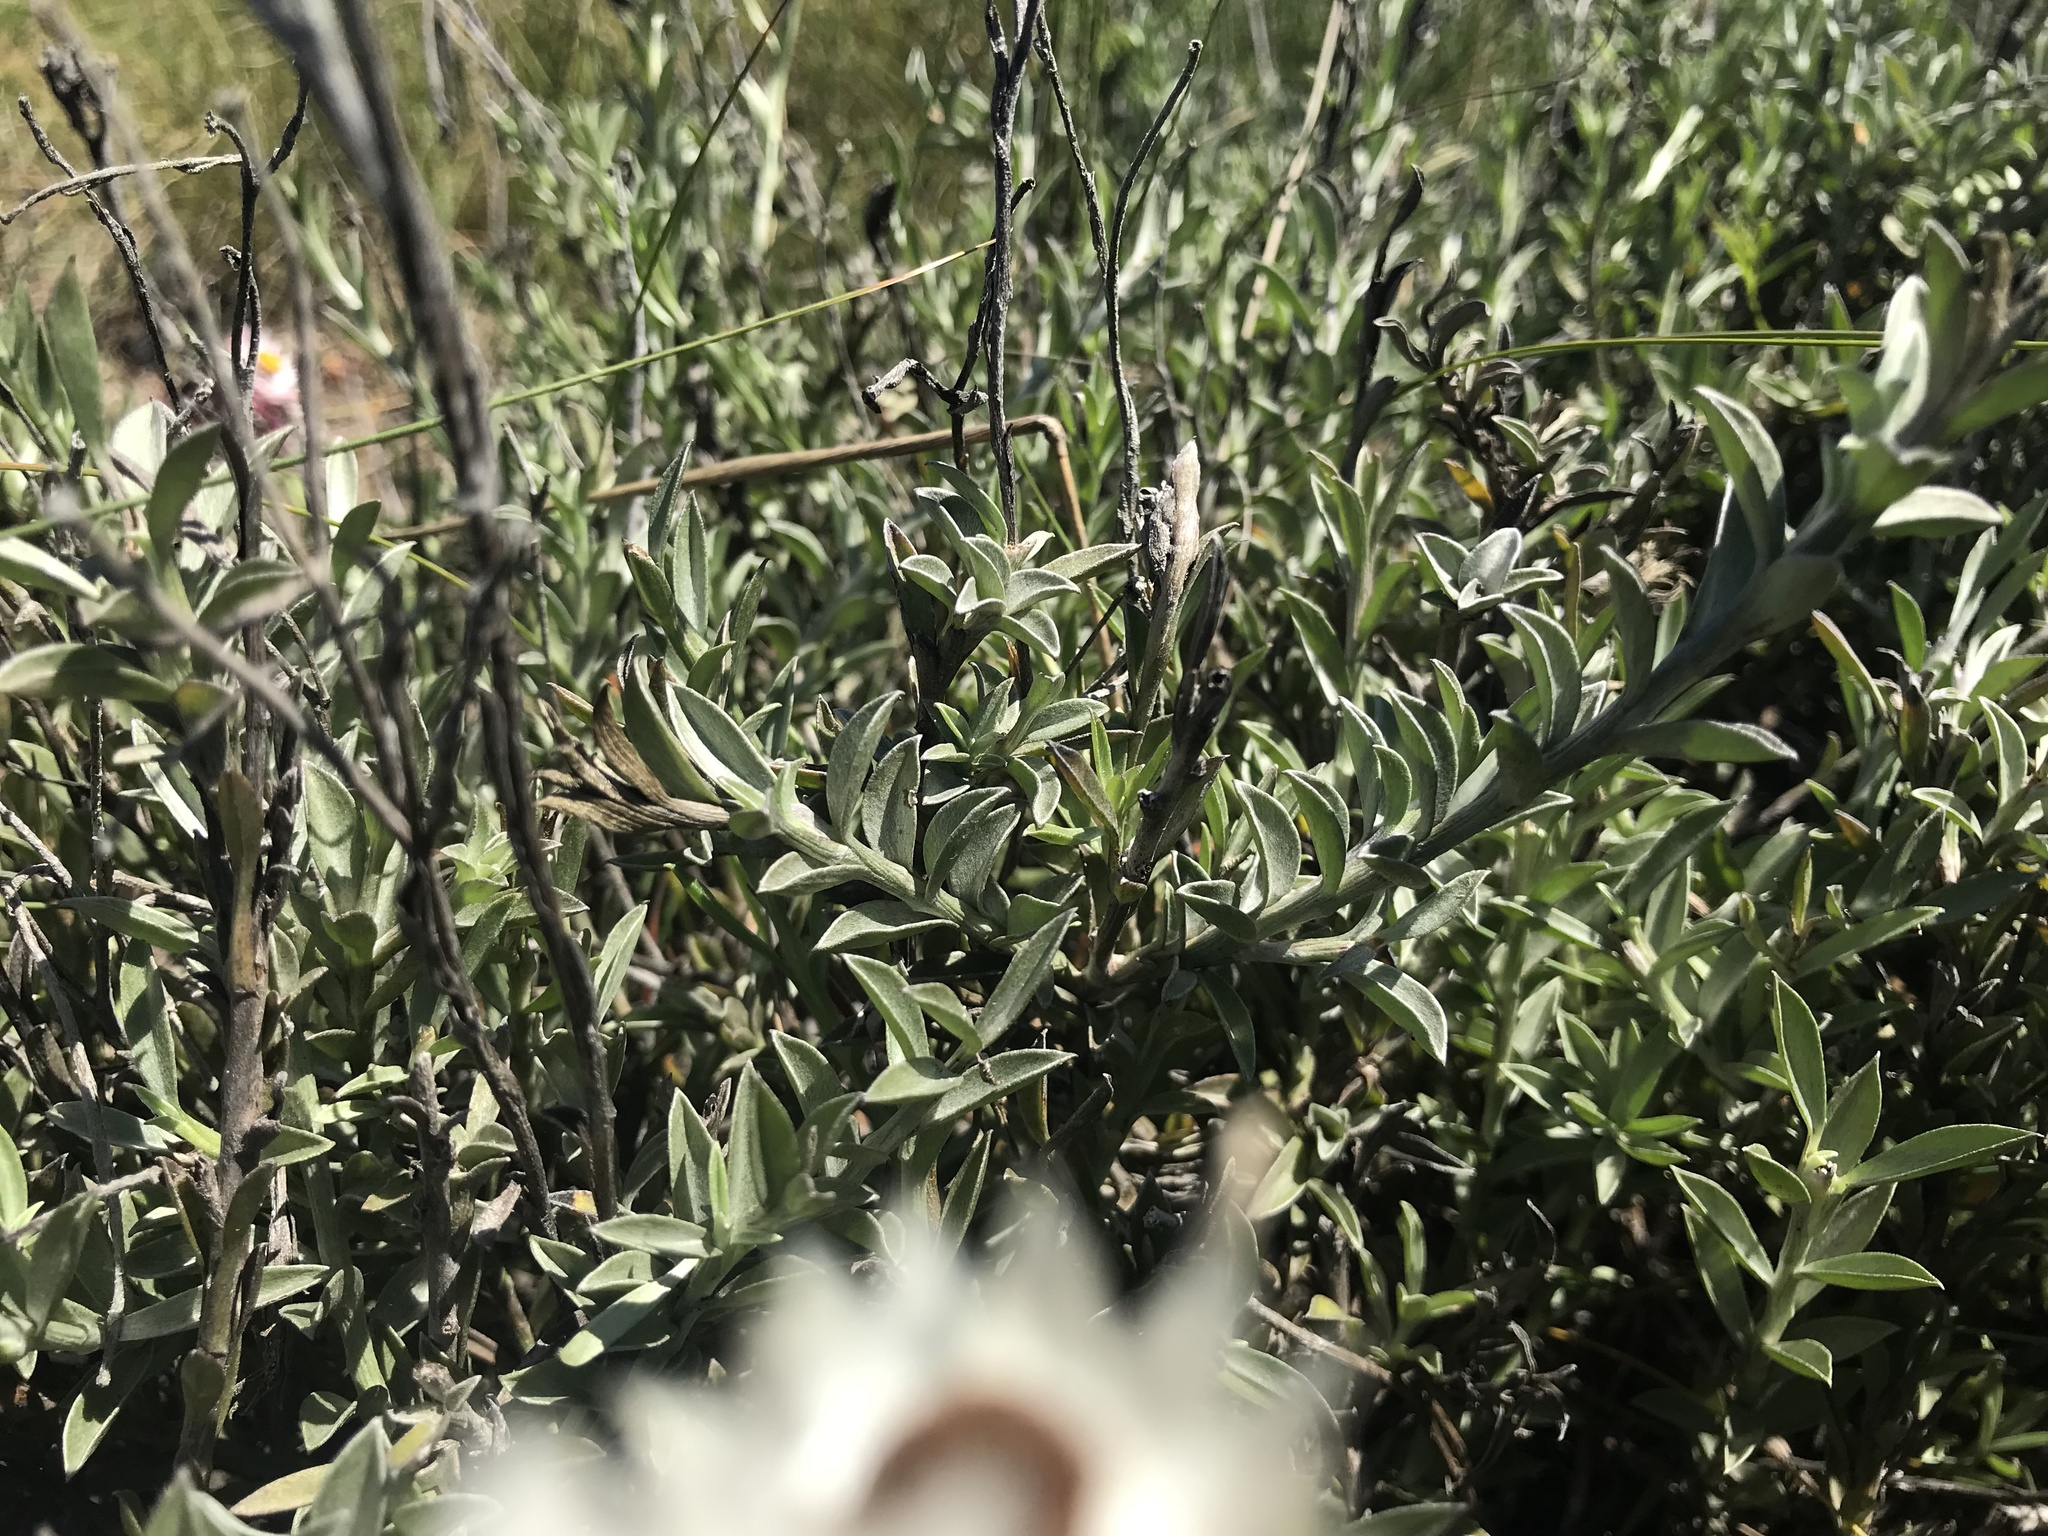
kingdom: Plantae
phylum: Tracheophyta
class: Magnoliopsida
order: Asterales
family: Asteraceae
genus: Achyranthemum
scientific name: Achyranthemum affine
